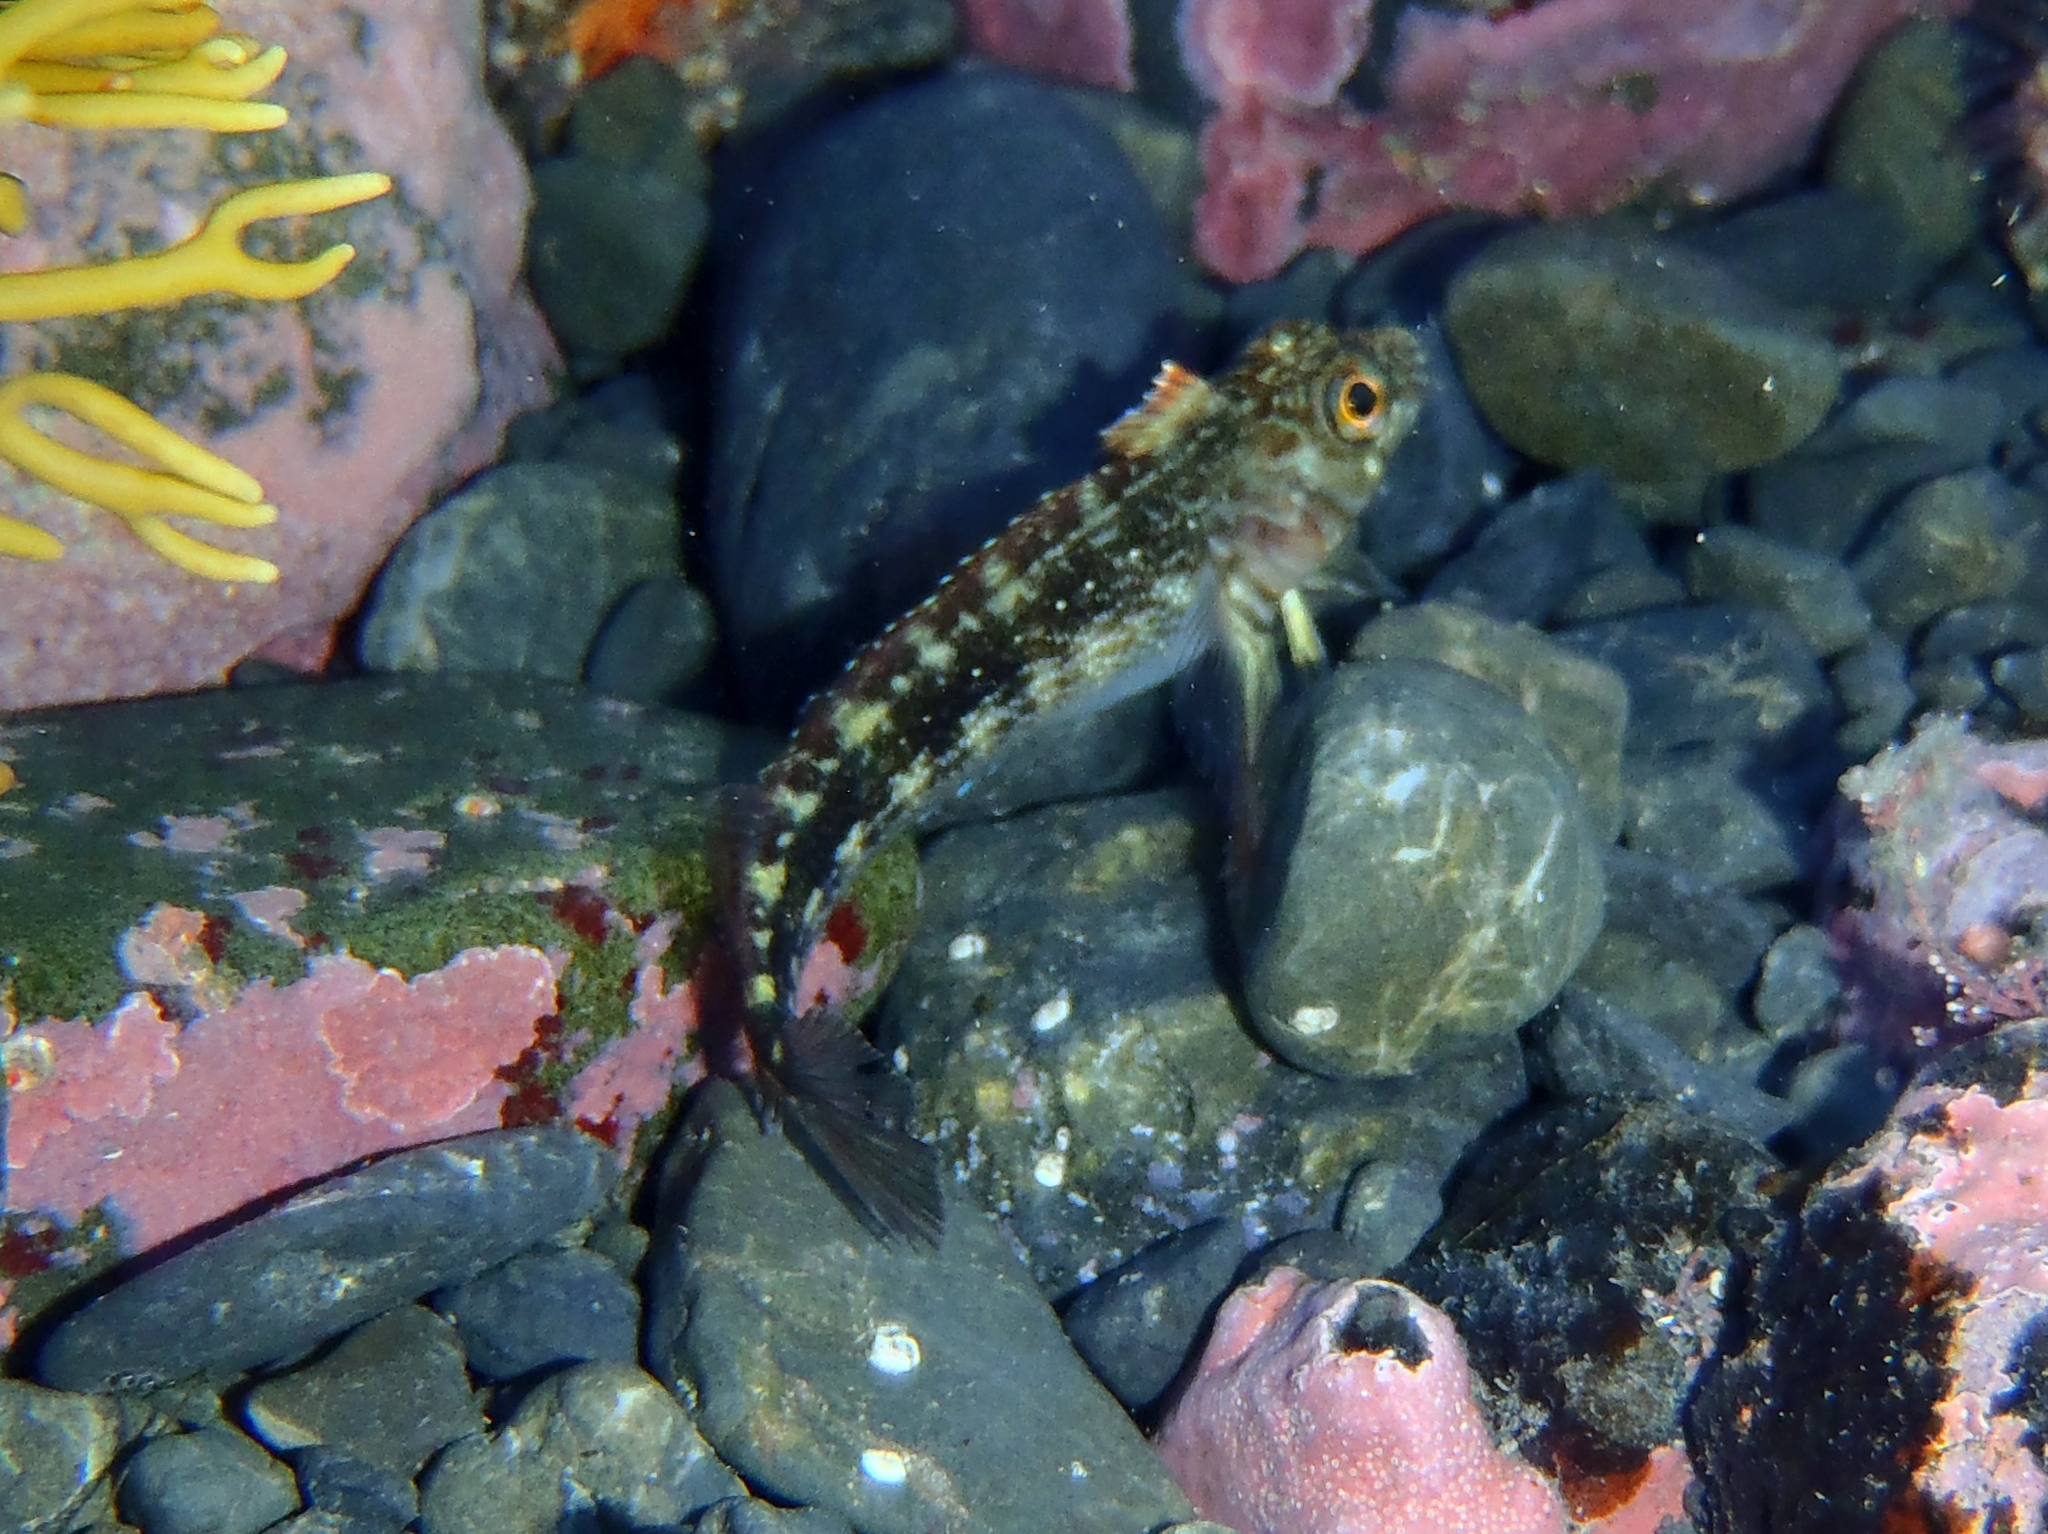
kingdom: Animalia
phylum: Chordata
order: Perciformes
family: Tripterygiidae
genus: Forsterygion
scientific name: Forsterygion varium
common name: Variable triplefin
